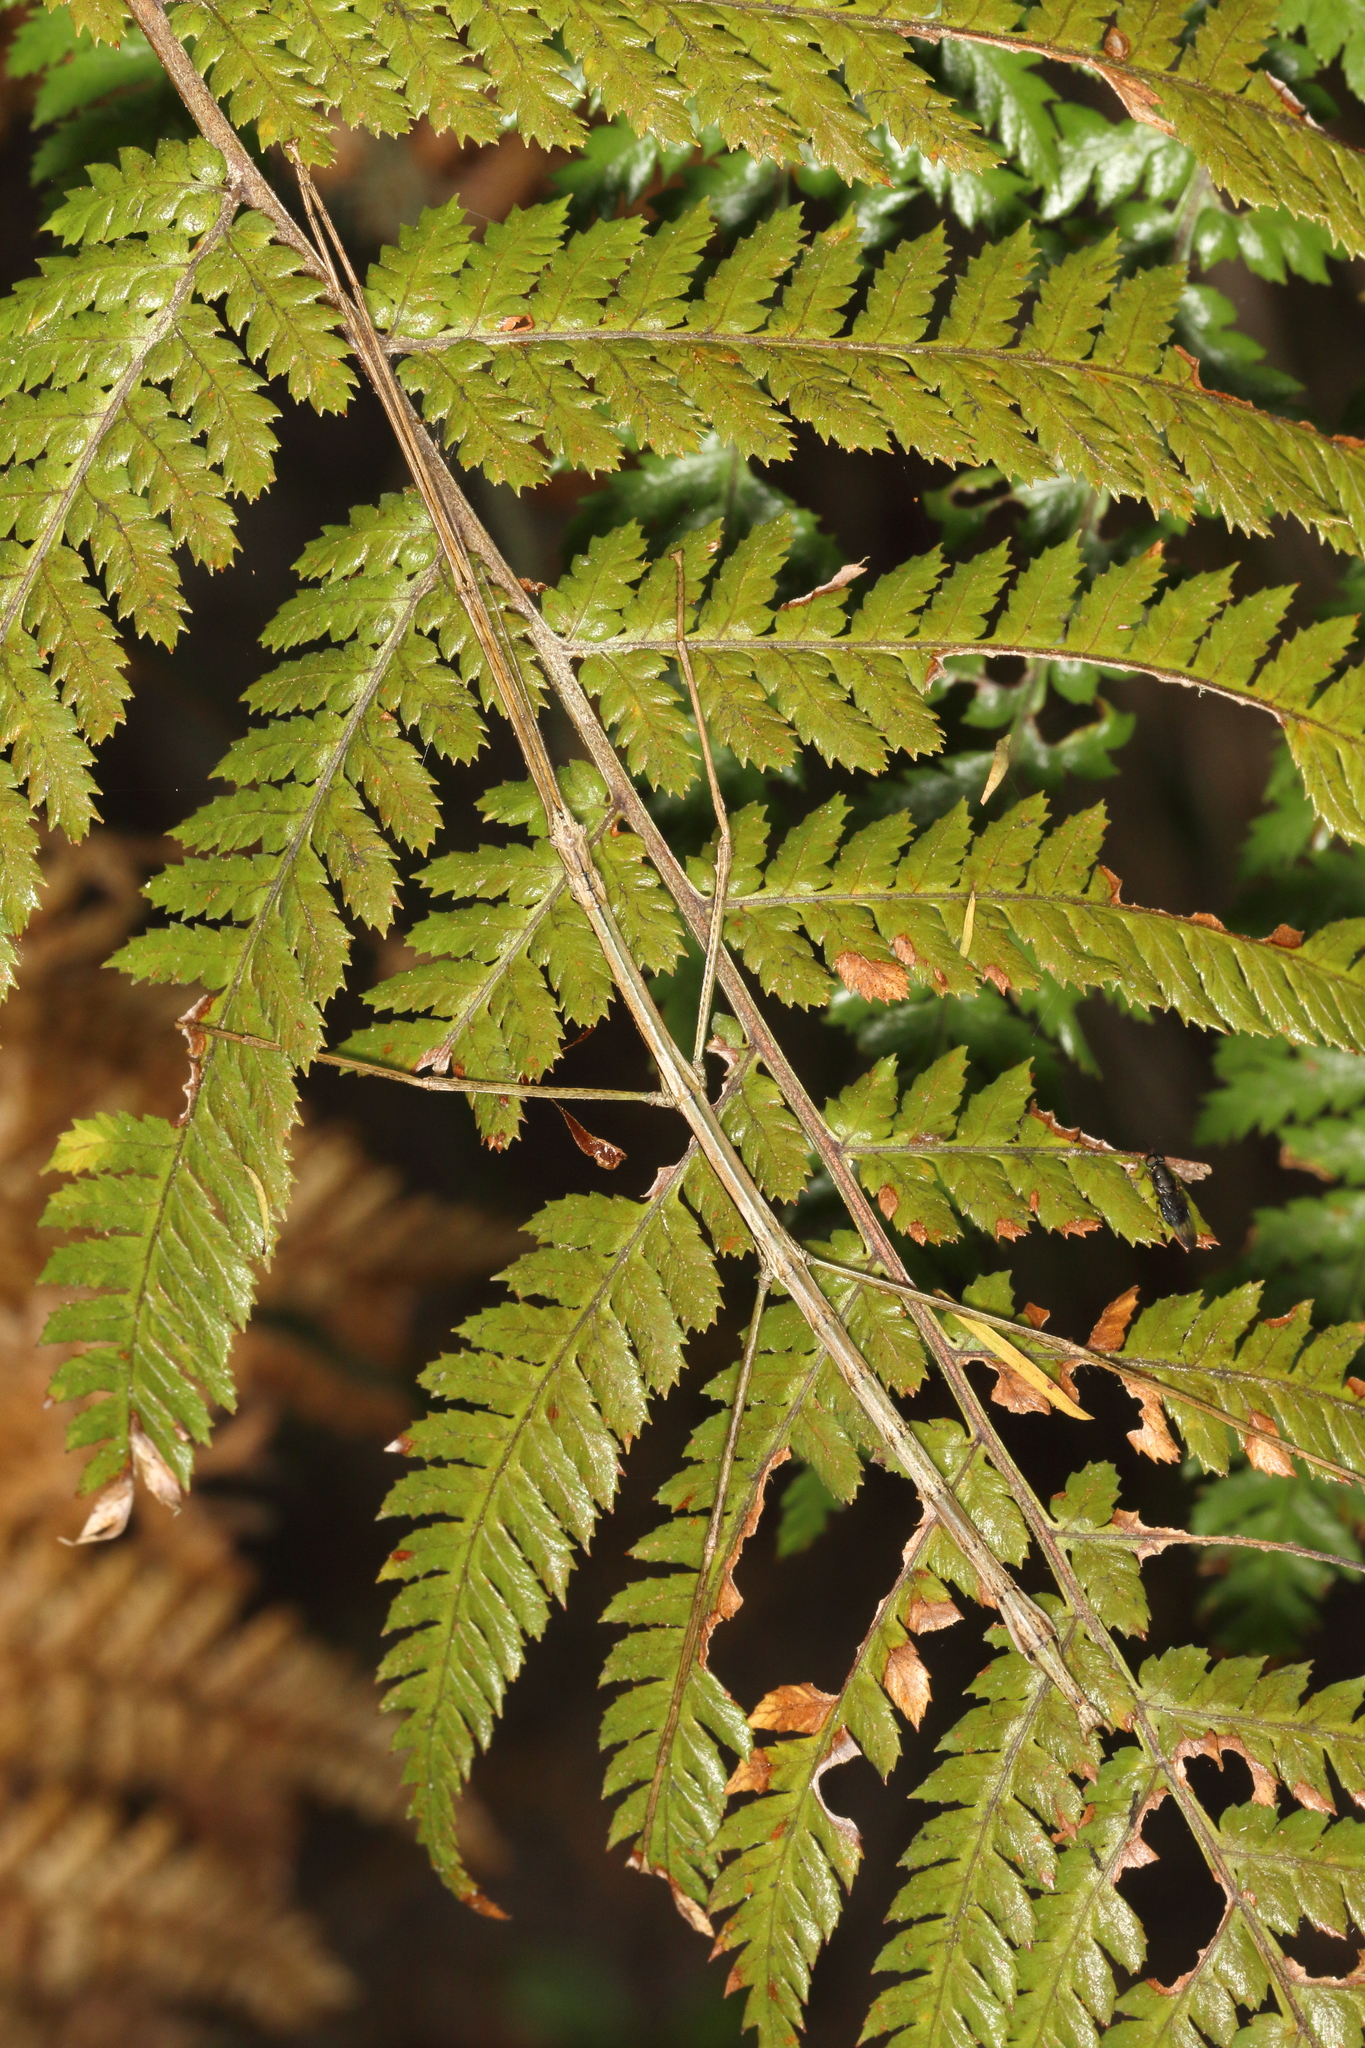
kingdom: Animalia
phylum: Arthropoda
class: Insecta
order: Phasmida
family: Phasmatidae
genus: Clitarchus
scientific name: Clitarchus hookeri
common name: Smooth stick insect
